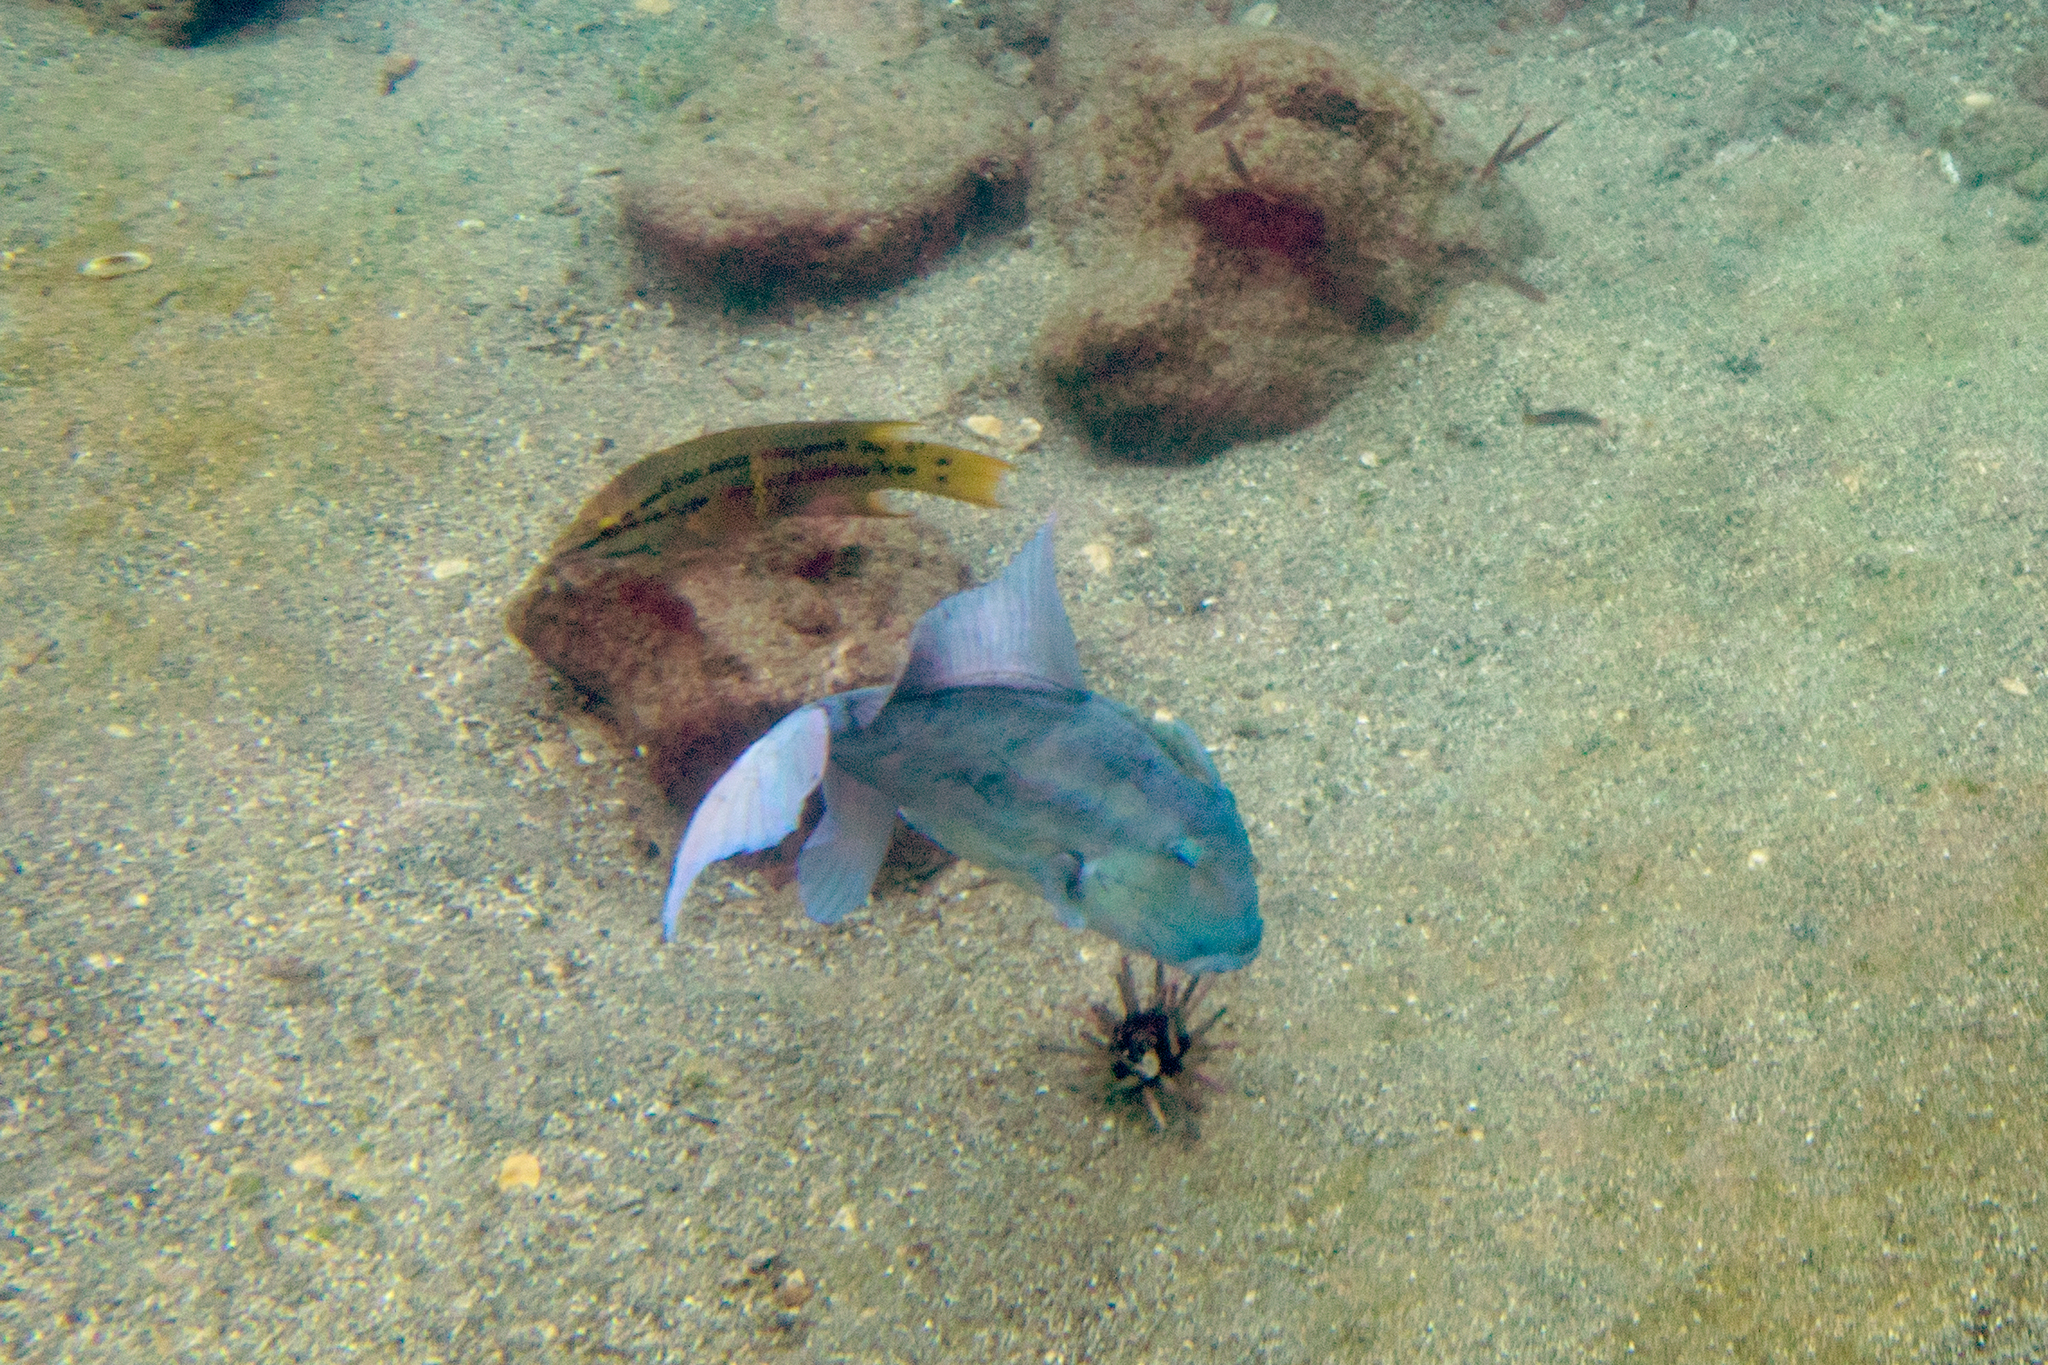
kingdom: Animalia
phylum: Chordata
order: Tetraodontiformes
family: Balistidae
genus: Balistes
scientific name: Balistes polylepis
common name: Finescale triggerfish
